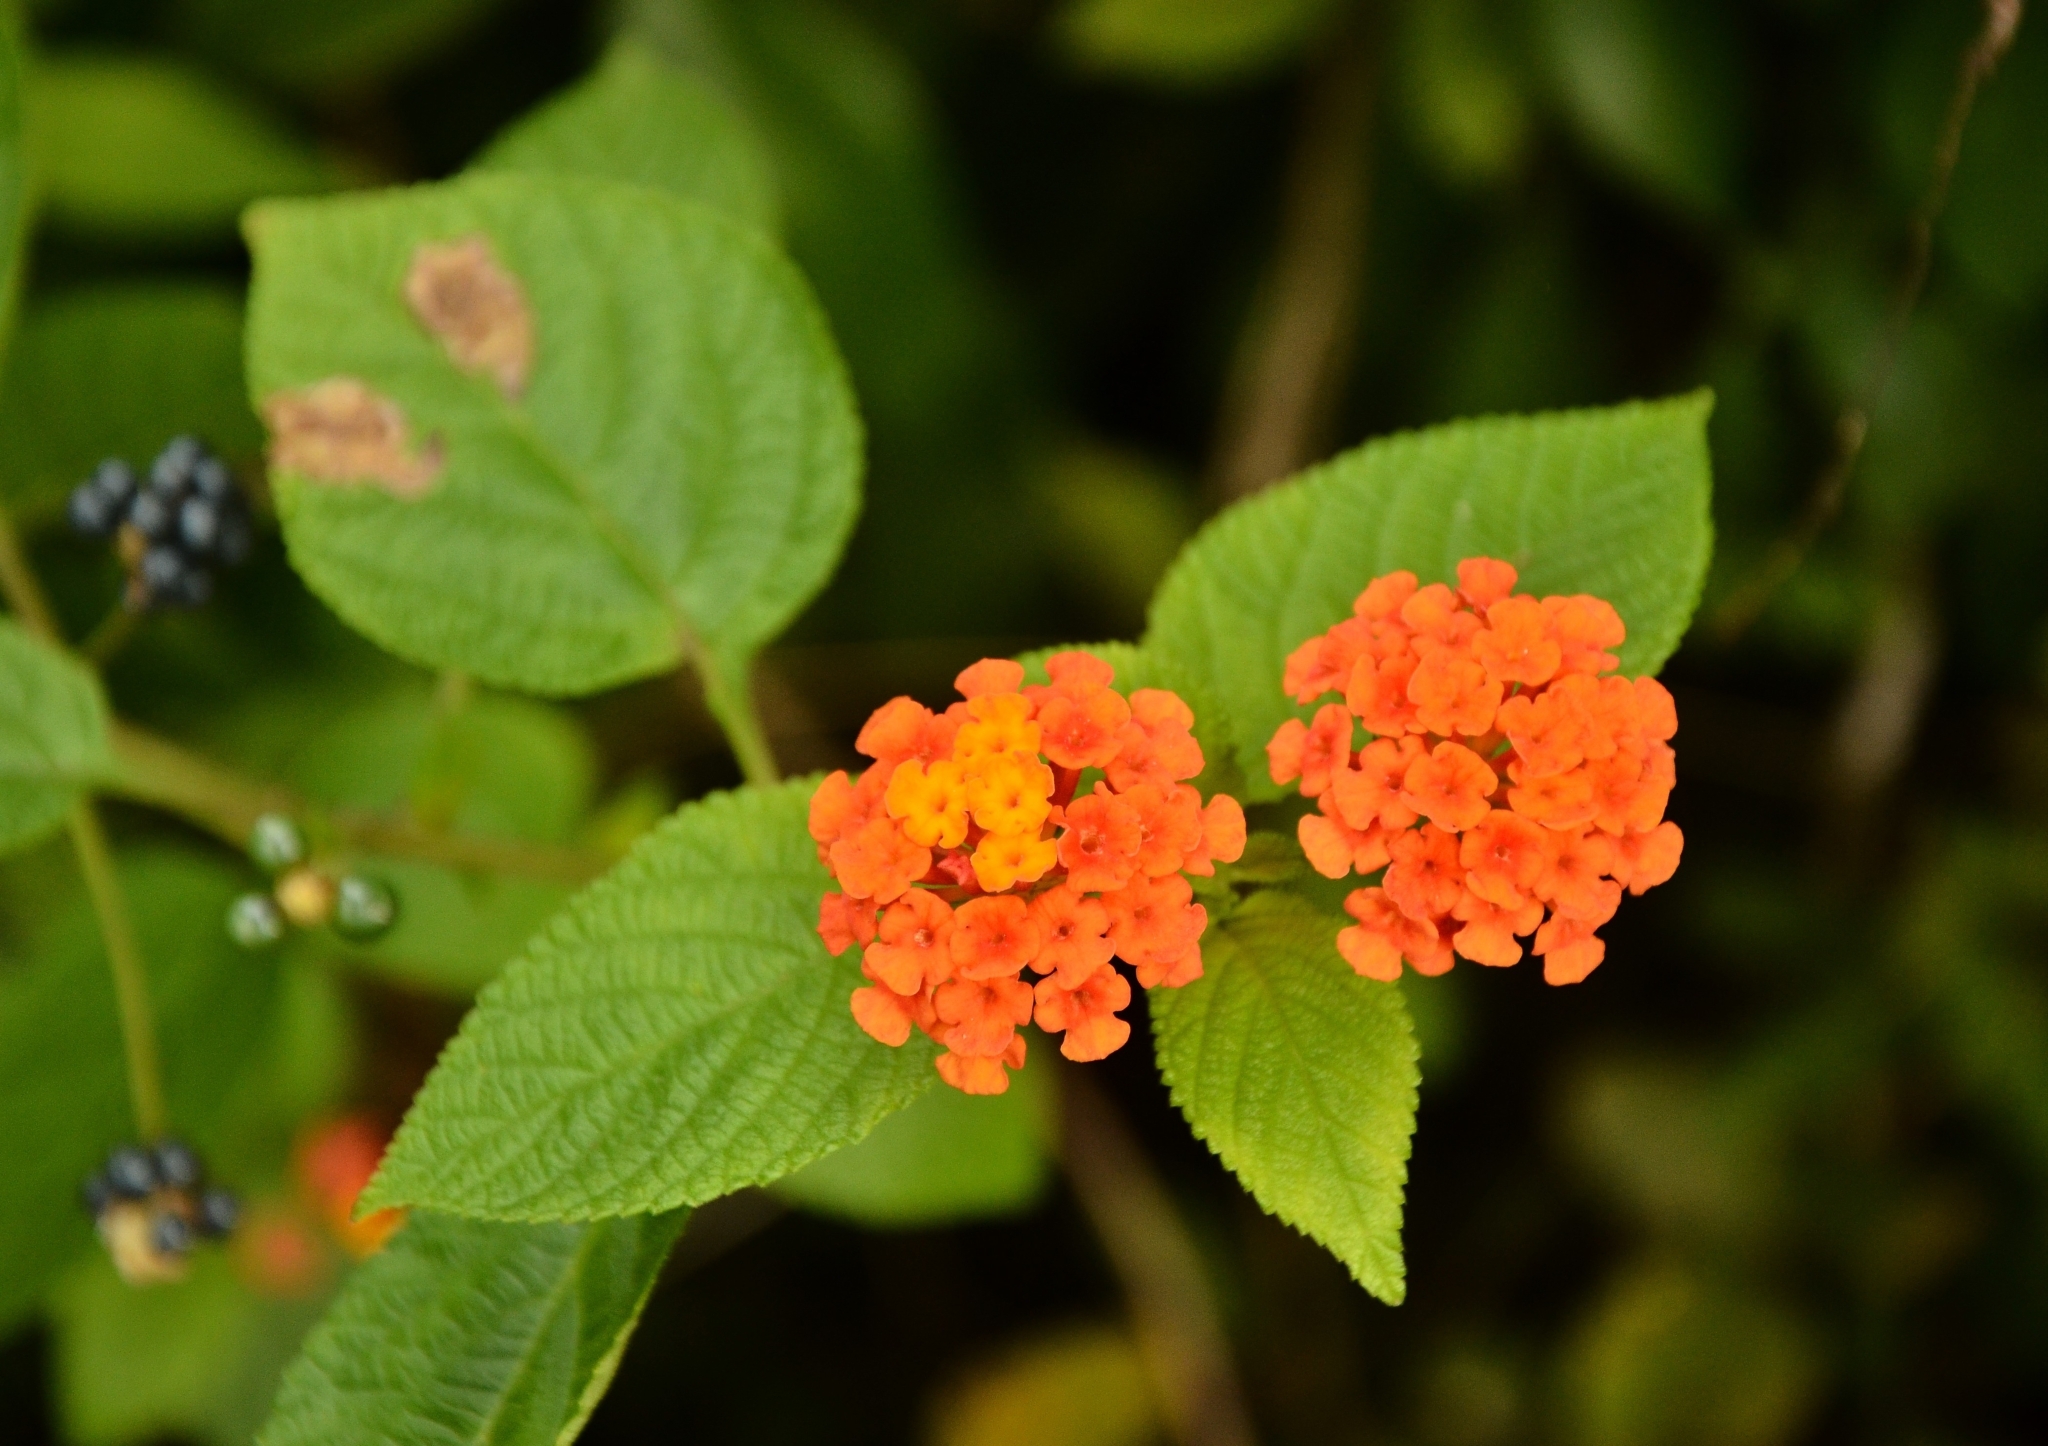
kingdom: Plantae
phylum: Tracheophyta
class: Magnoliopsida
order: Lamiales
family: Verbenaceae
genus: Lantana
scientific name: Lantana camara
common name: Lantana
